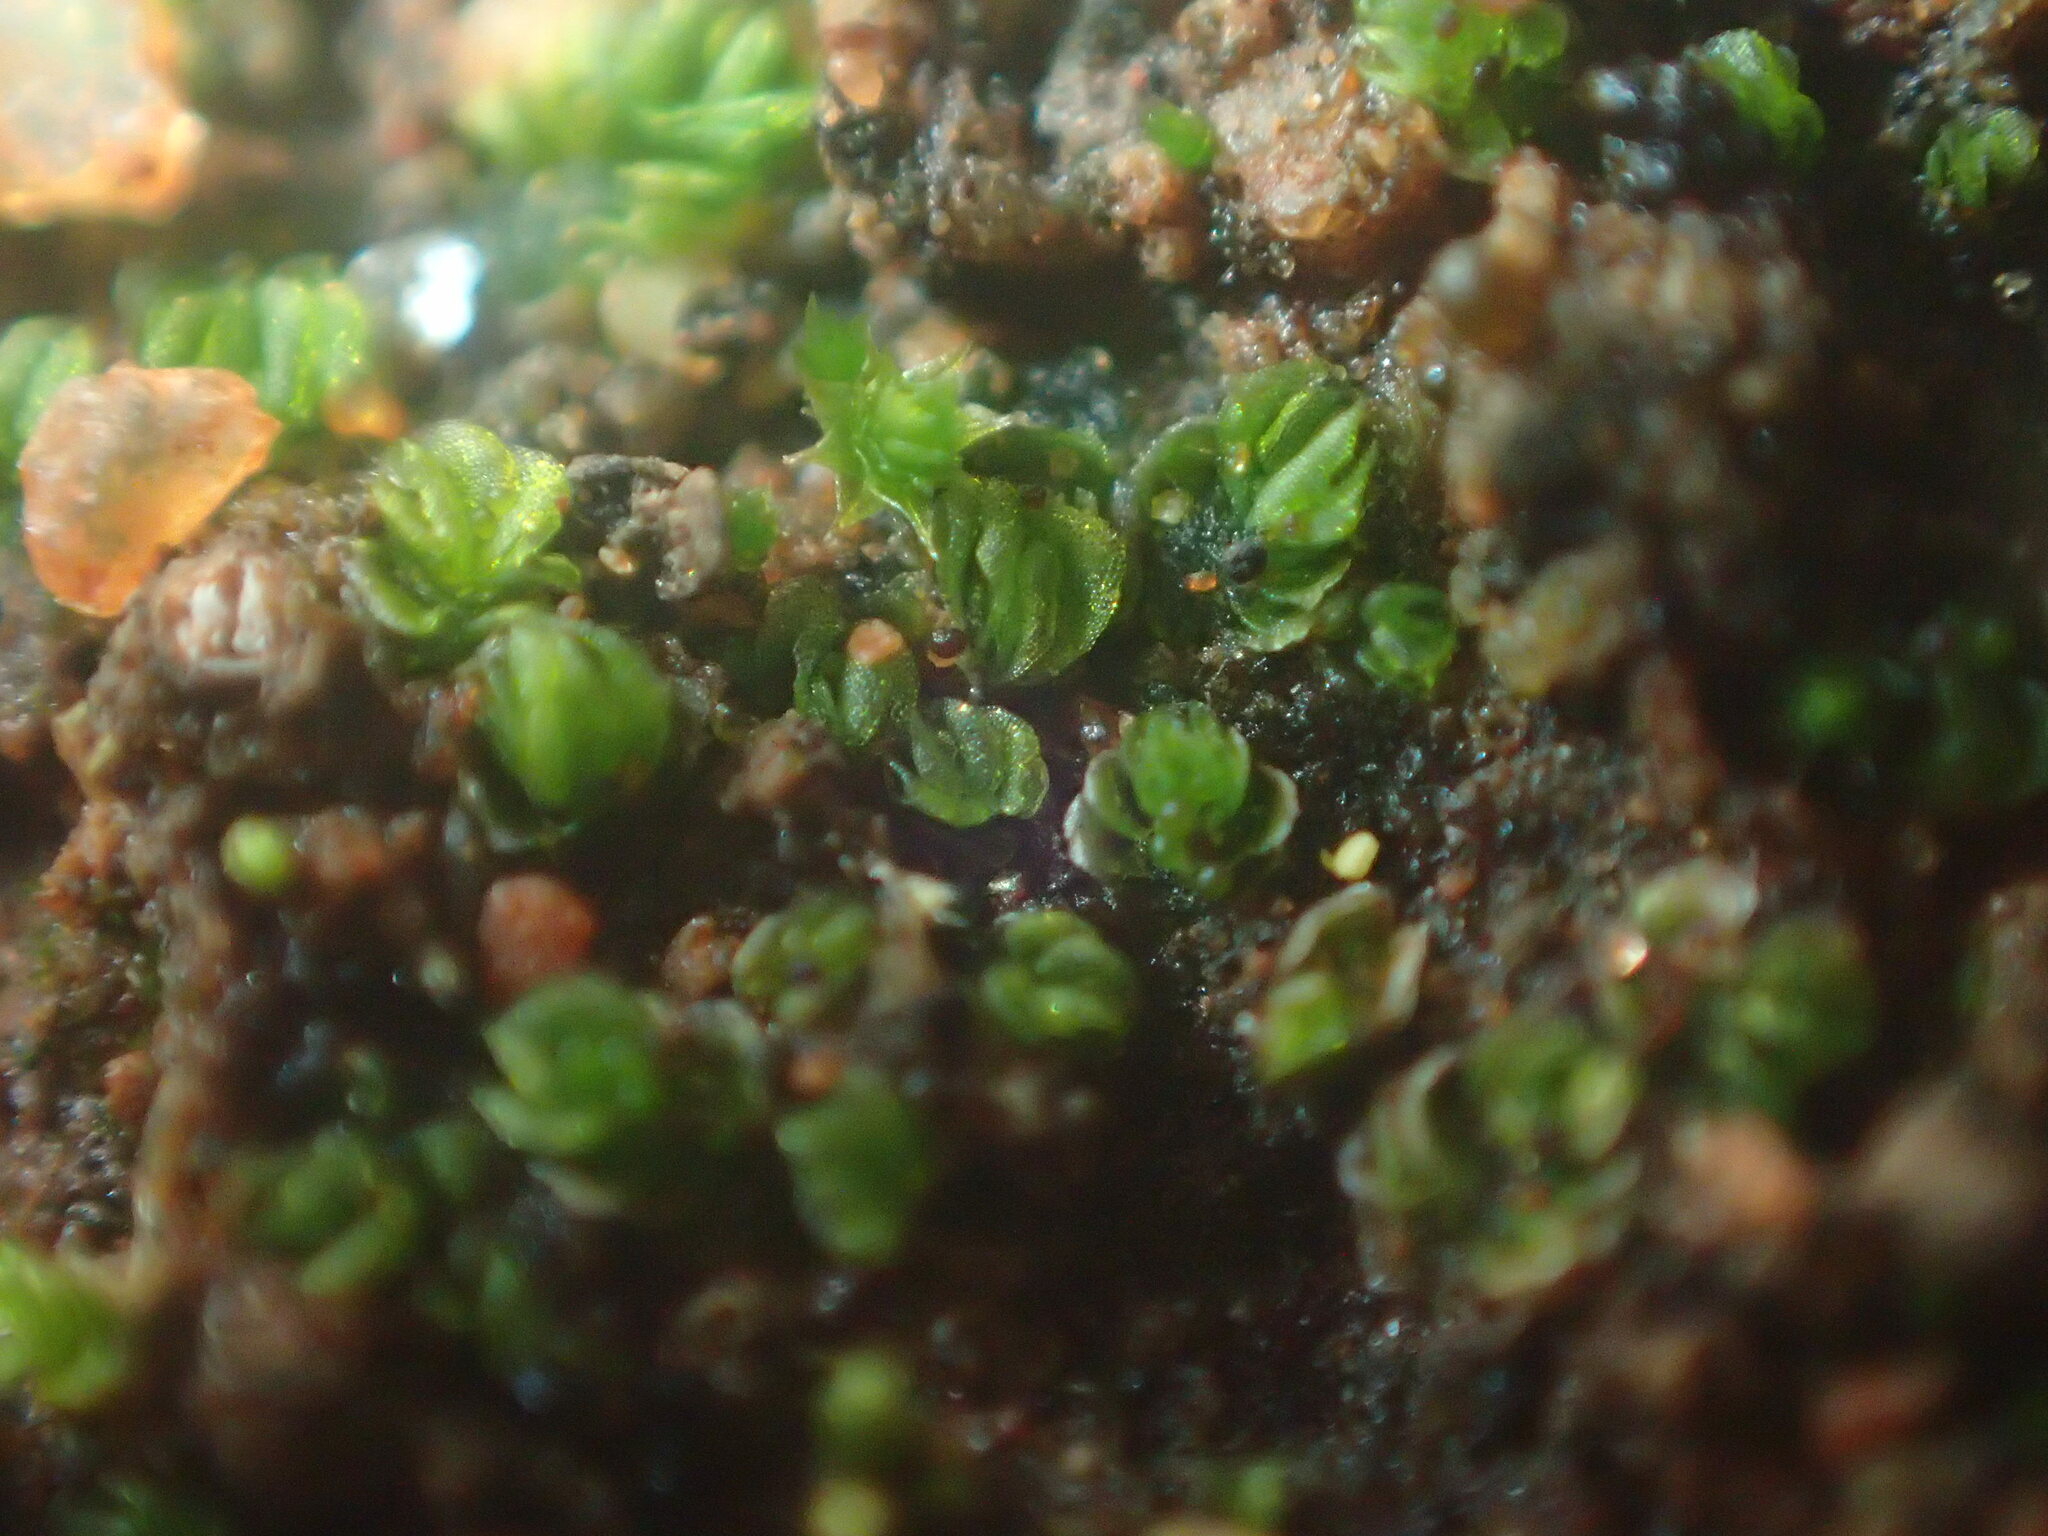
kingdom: Plantae
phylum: Marchantiophyta
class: Jungermanniopsida
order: Jungermanniales
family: Acrobolbaceae
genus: Lethocolea
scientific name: Lethocolea pansa
